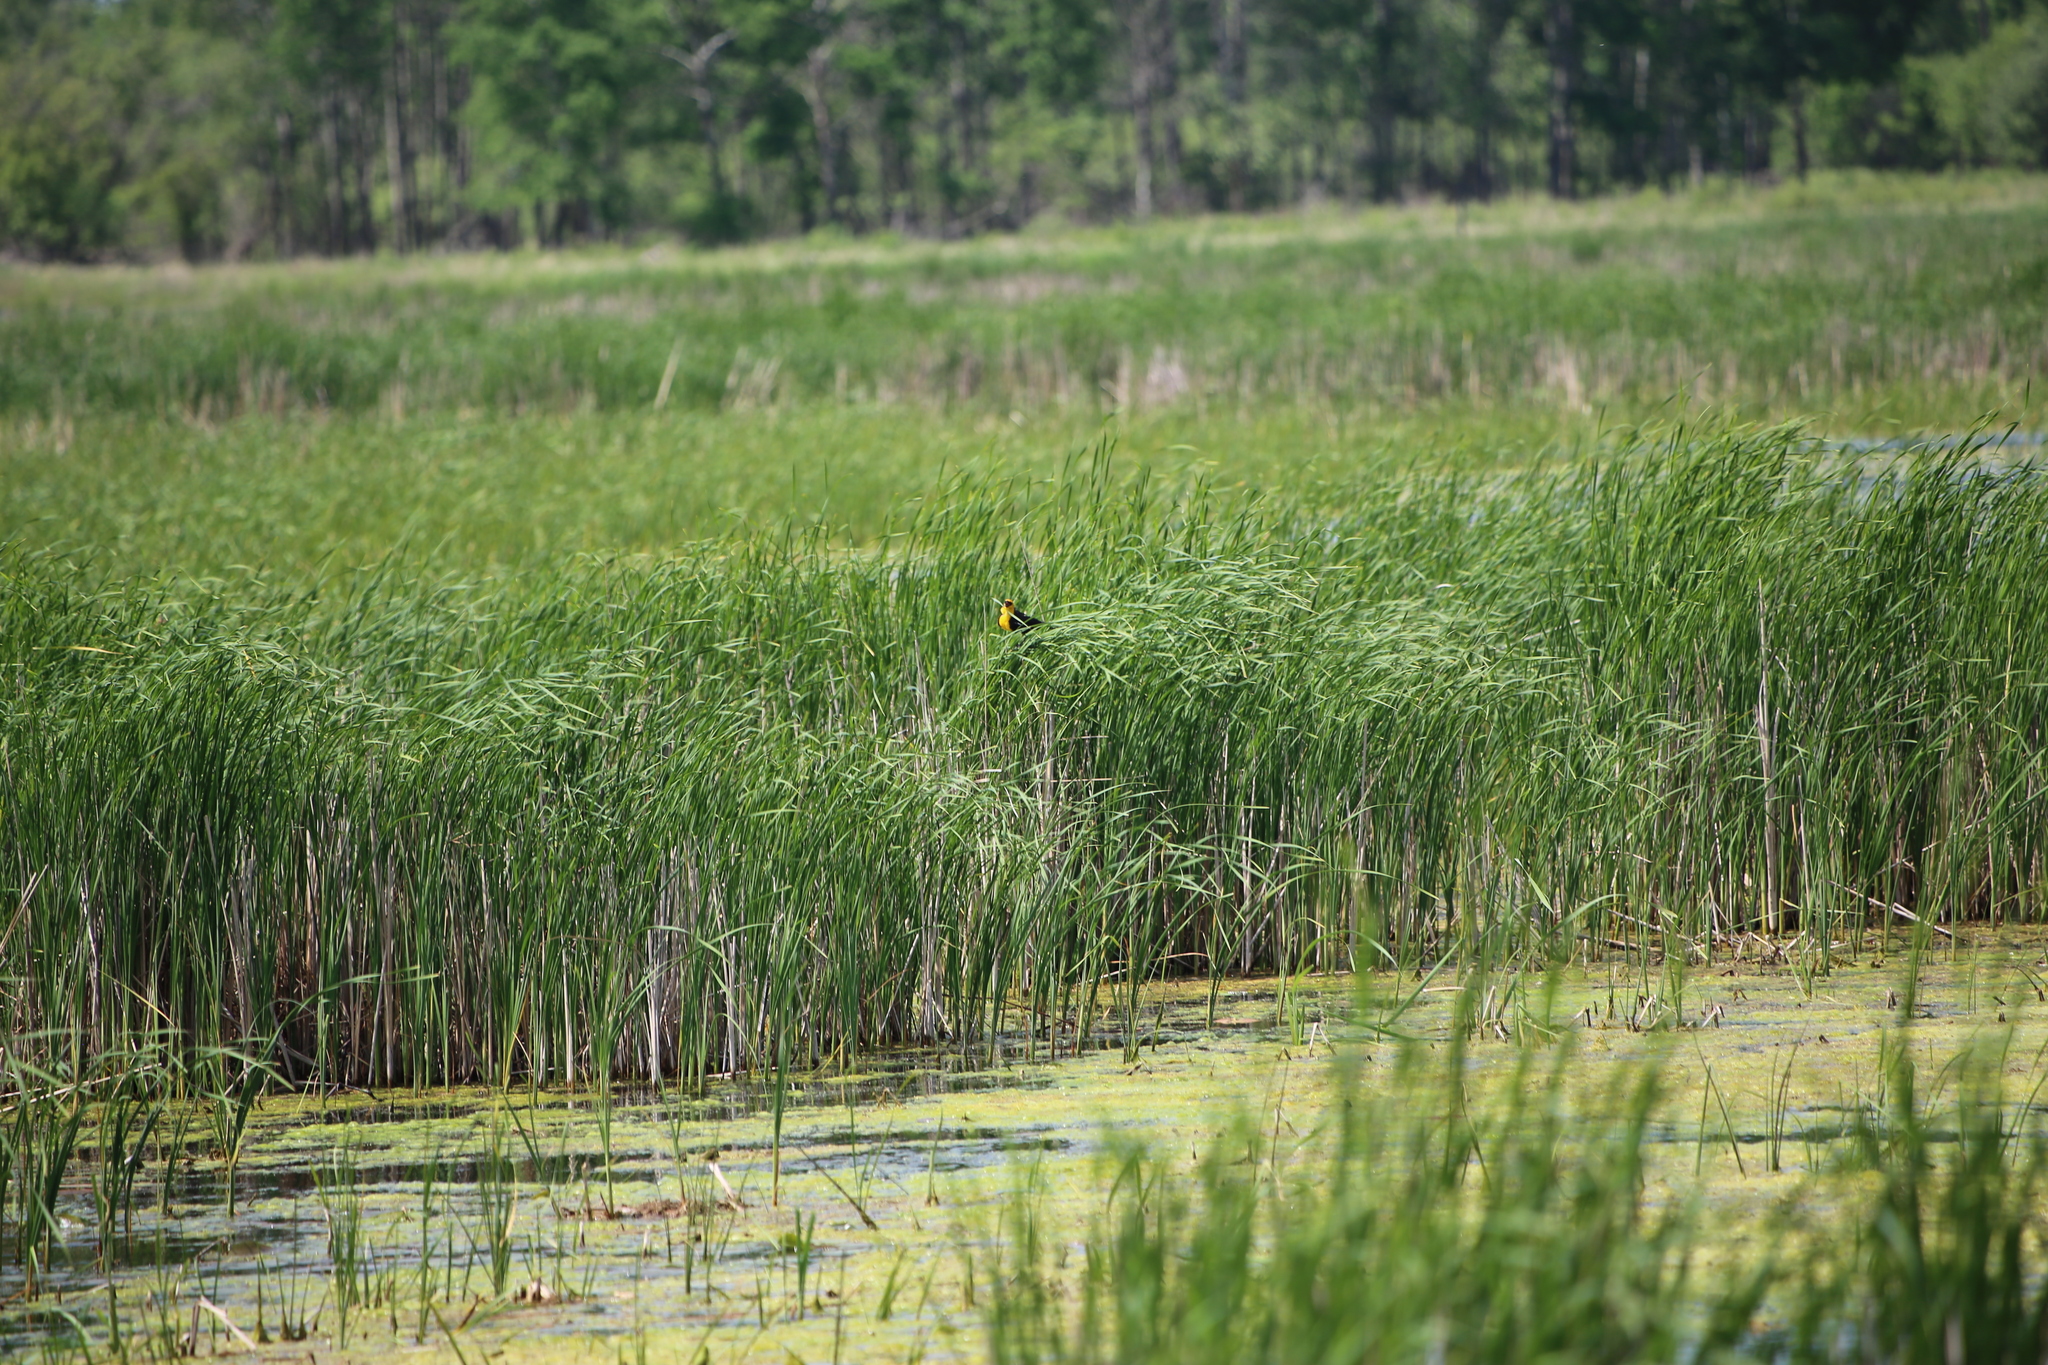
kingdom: Animalia
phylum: Chordata
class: Aves
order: Passeriformes
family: Icteridae
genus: Xanthocephalus
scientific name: Xanthocephalus xanthocephalus
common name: Yellow-headed blackbird
